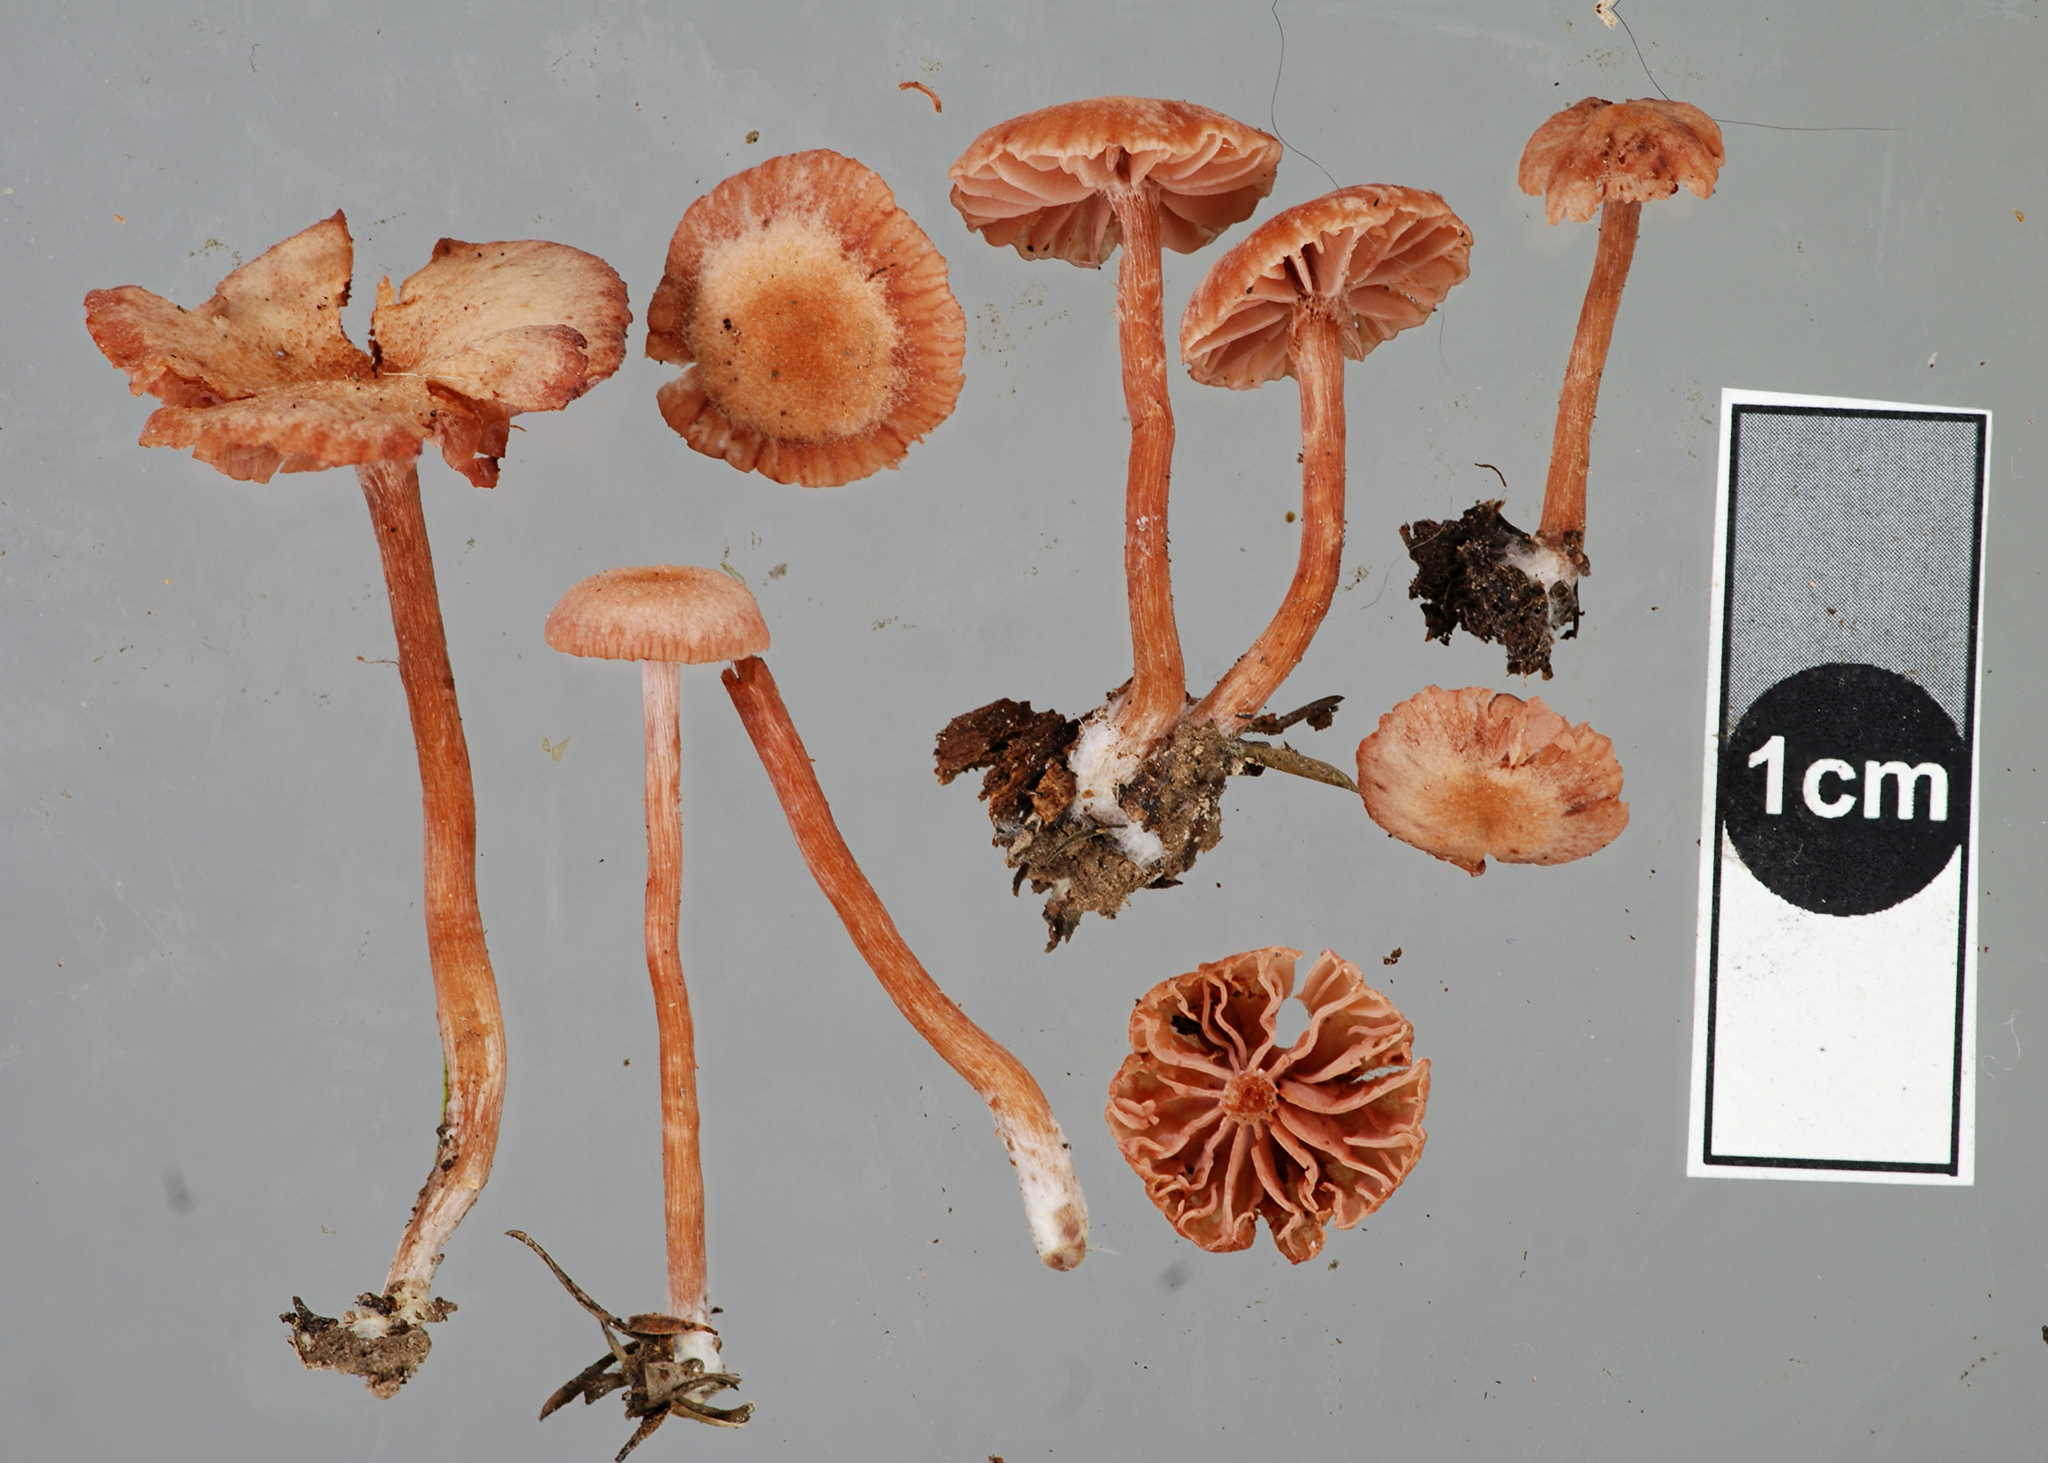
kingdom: Fungi
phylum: Basidiomycota
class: Agaricomycetes
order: Agaricales
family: Hydnangiaceae
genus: Laccaria
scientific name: Laccaria paraphysata
